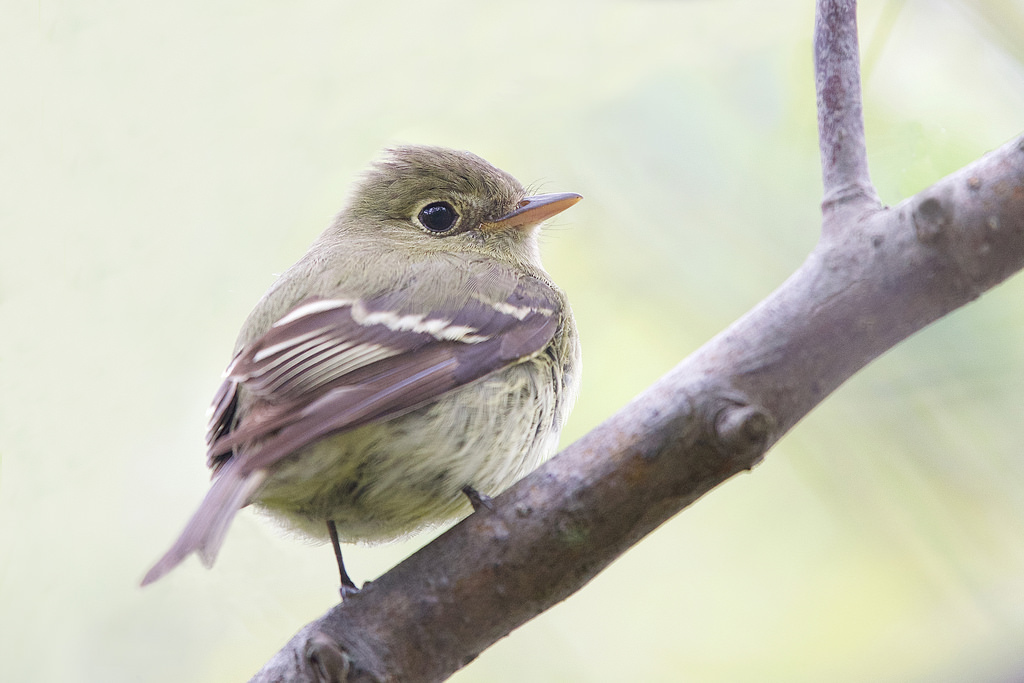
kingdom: Animalia
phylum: Chordata
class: Aves
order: Passeriformes
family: Tyrannidae
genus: Empidonax
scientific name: Empidonax flaviventris
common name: Yellow-bellied flycatcher
